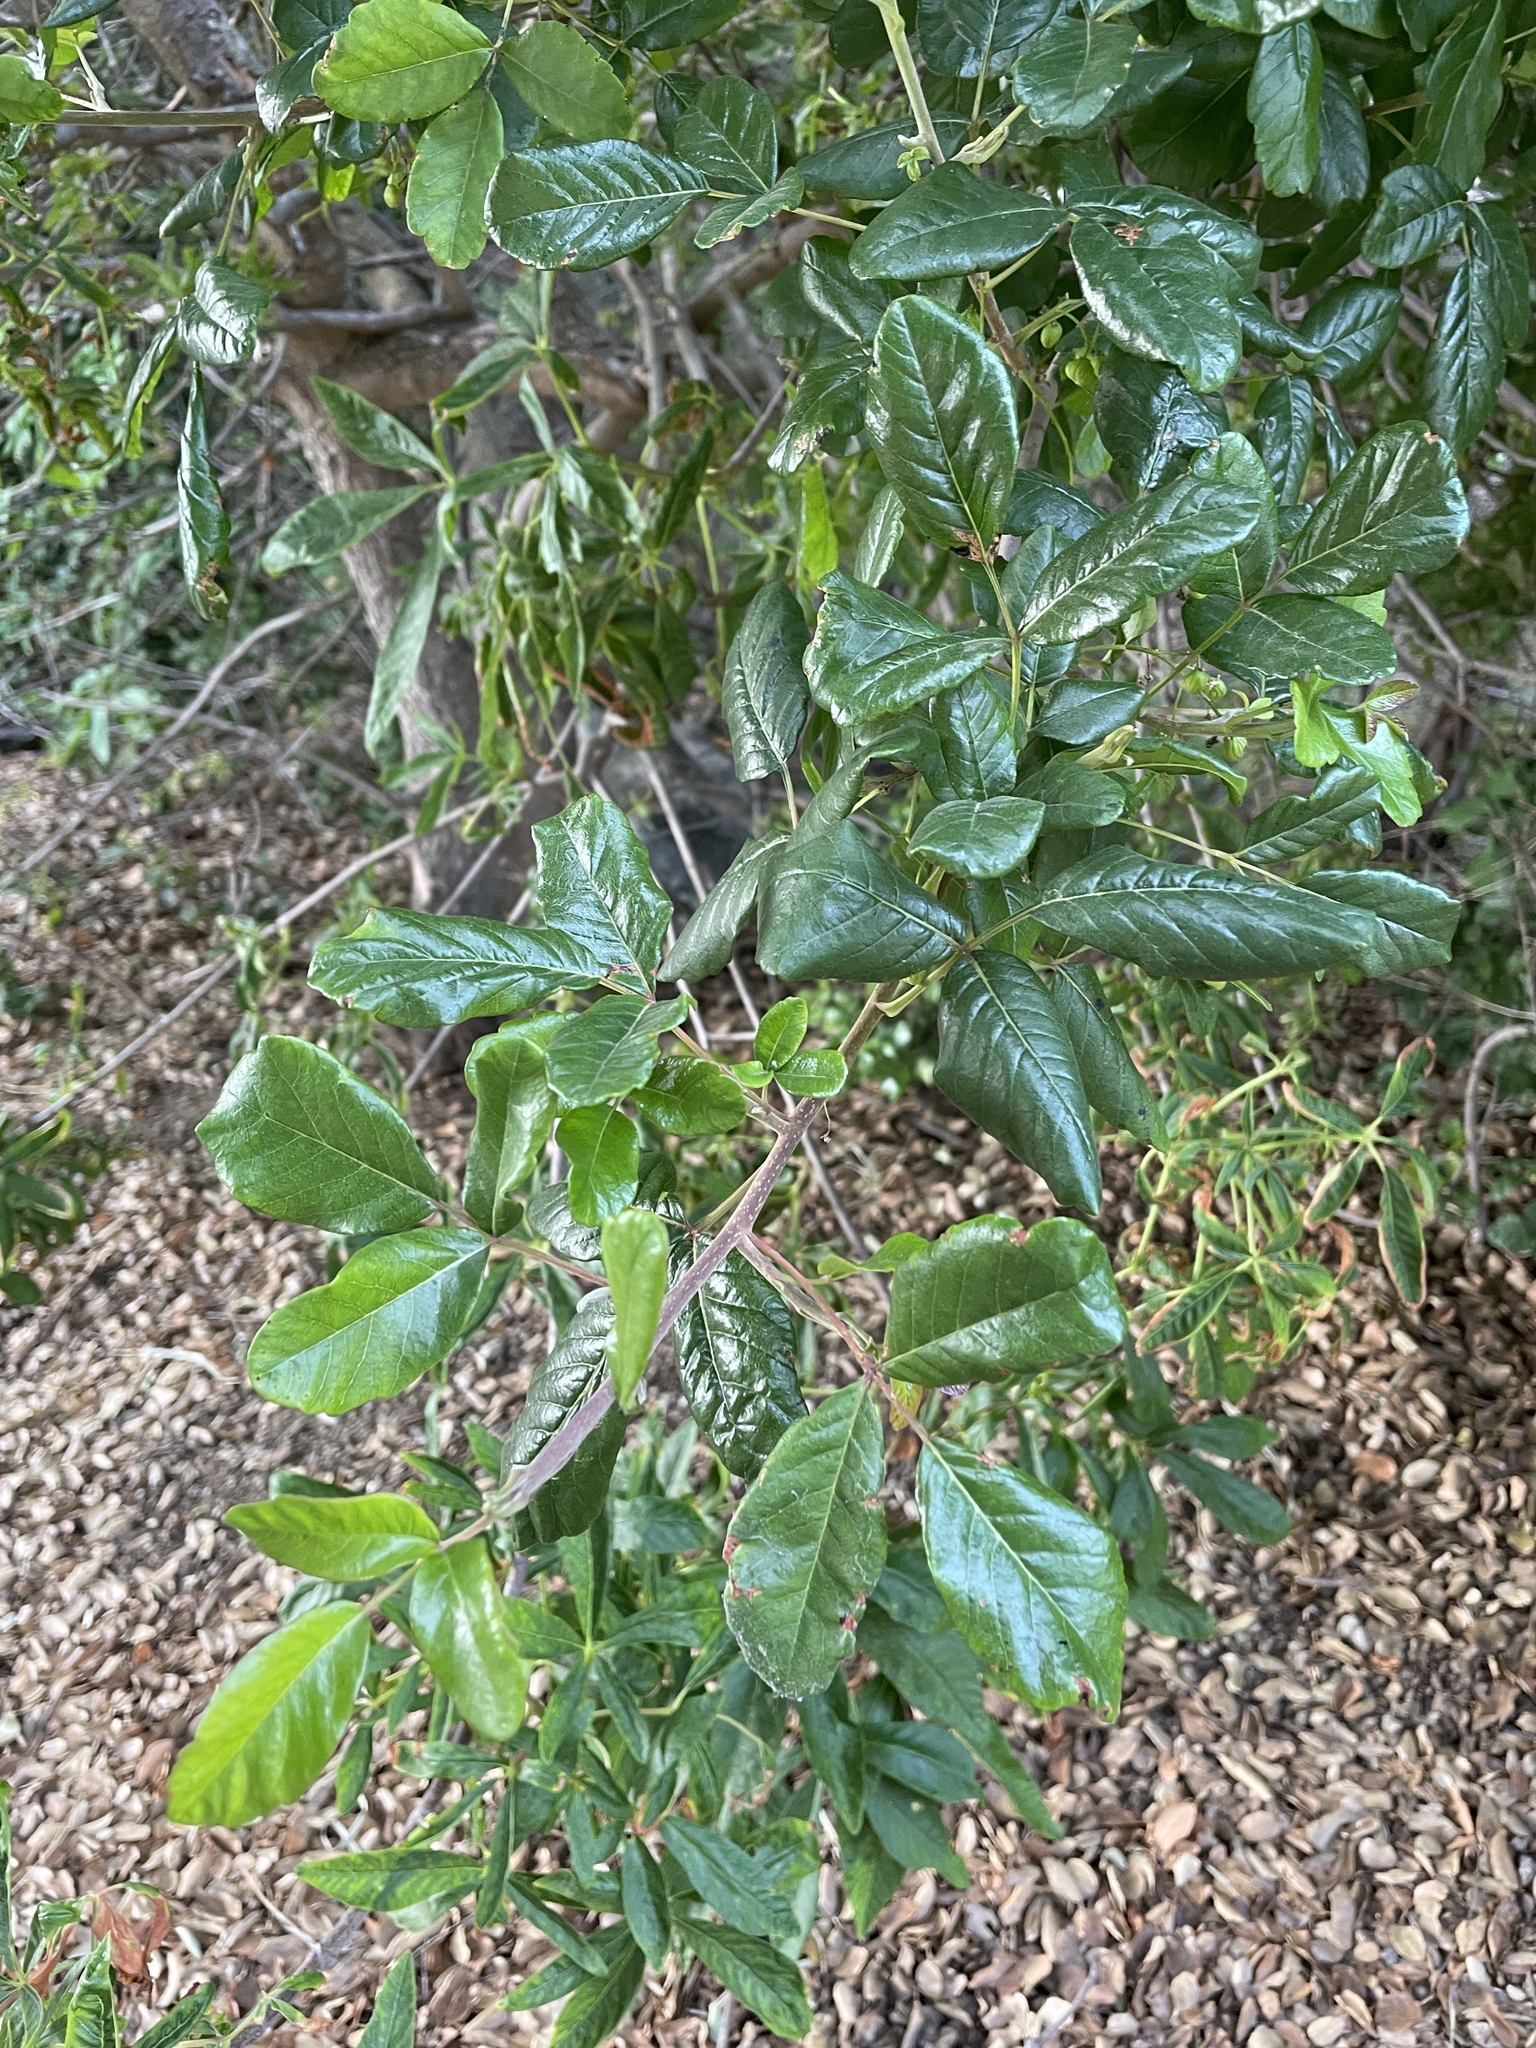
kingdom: Plantae
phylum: Tracheophyta
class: Magnoliopsida
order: Sapindales
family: Anacardiaceae
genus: Toxicodendron
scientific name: Toxicodendron diversilobum
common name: Pacific poison-oak
